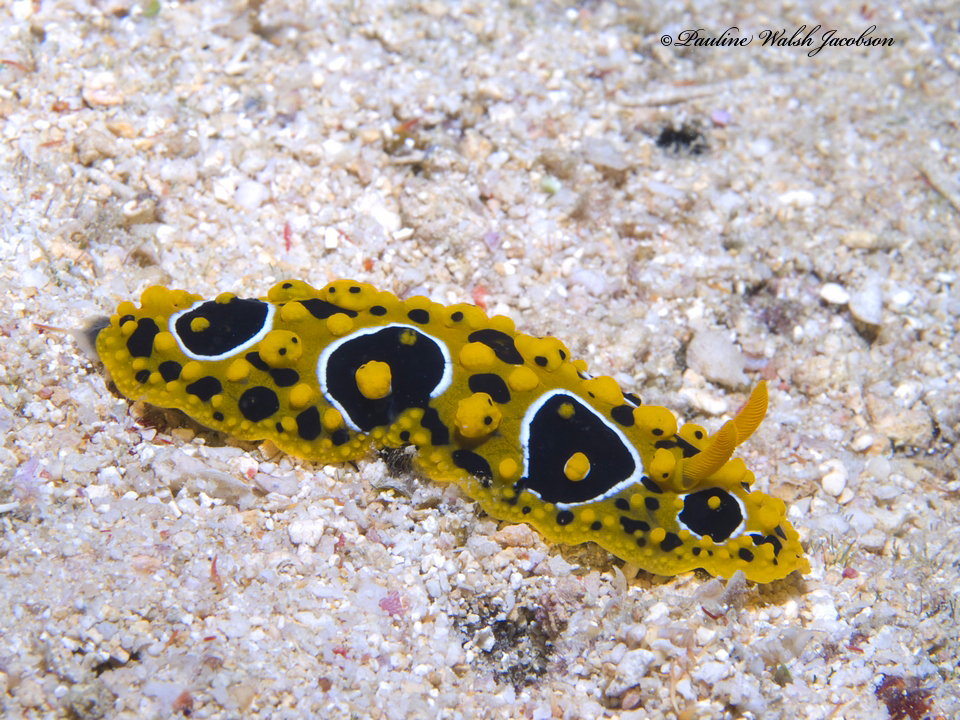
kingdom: Animalia
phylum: Mollusca
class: Gastropoda
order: Nudibranchia
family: Phyllidiidae
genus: Phyllidia
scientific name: Phyllidia ocellata
